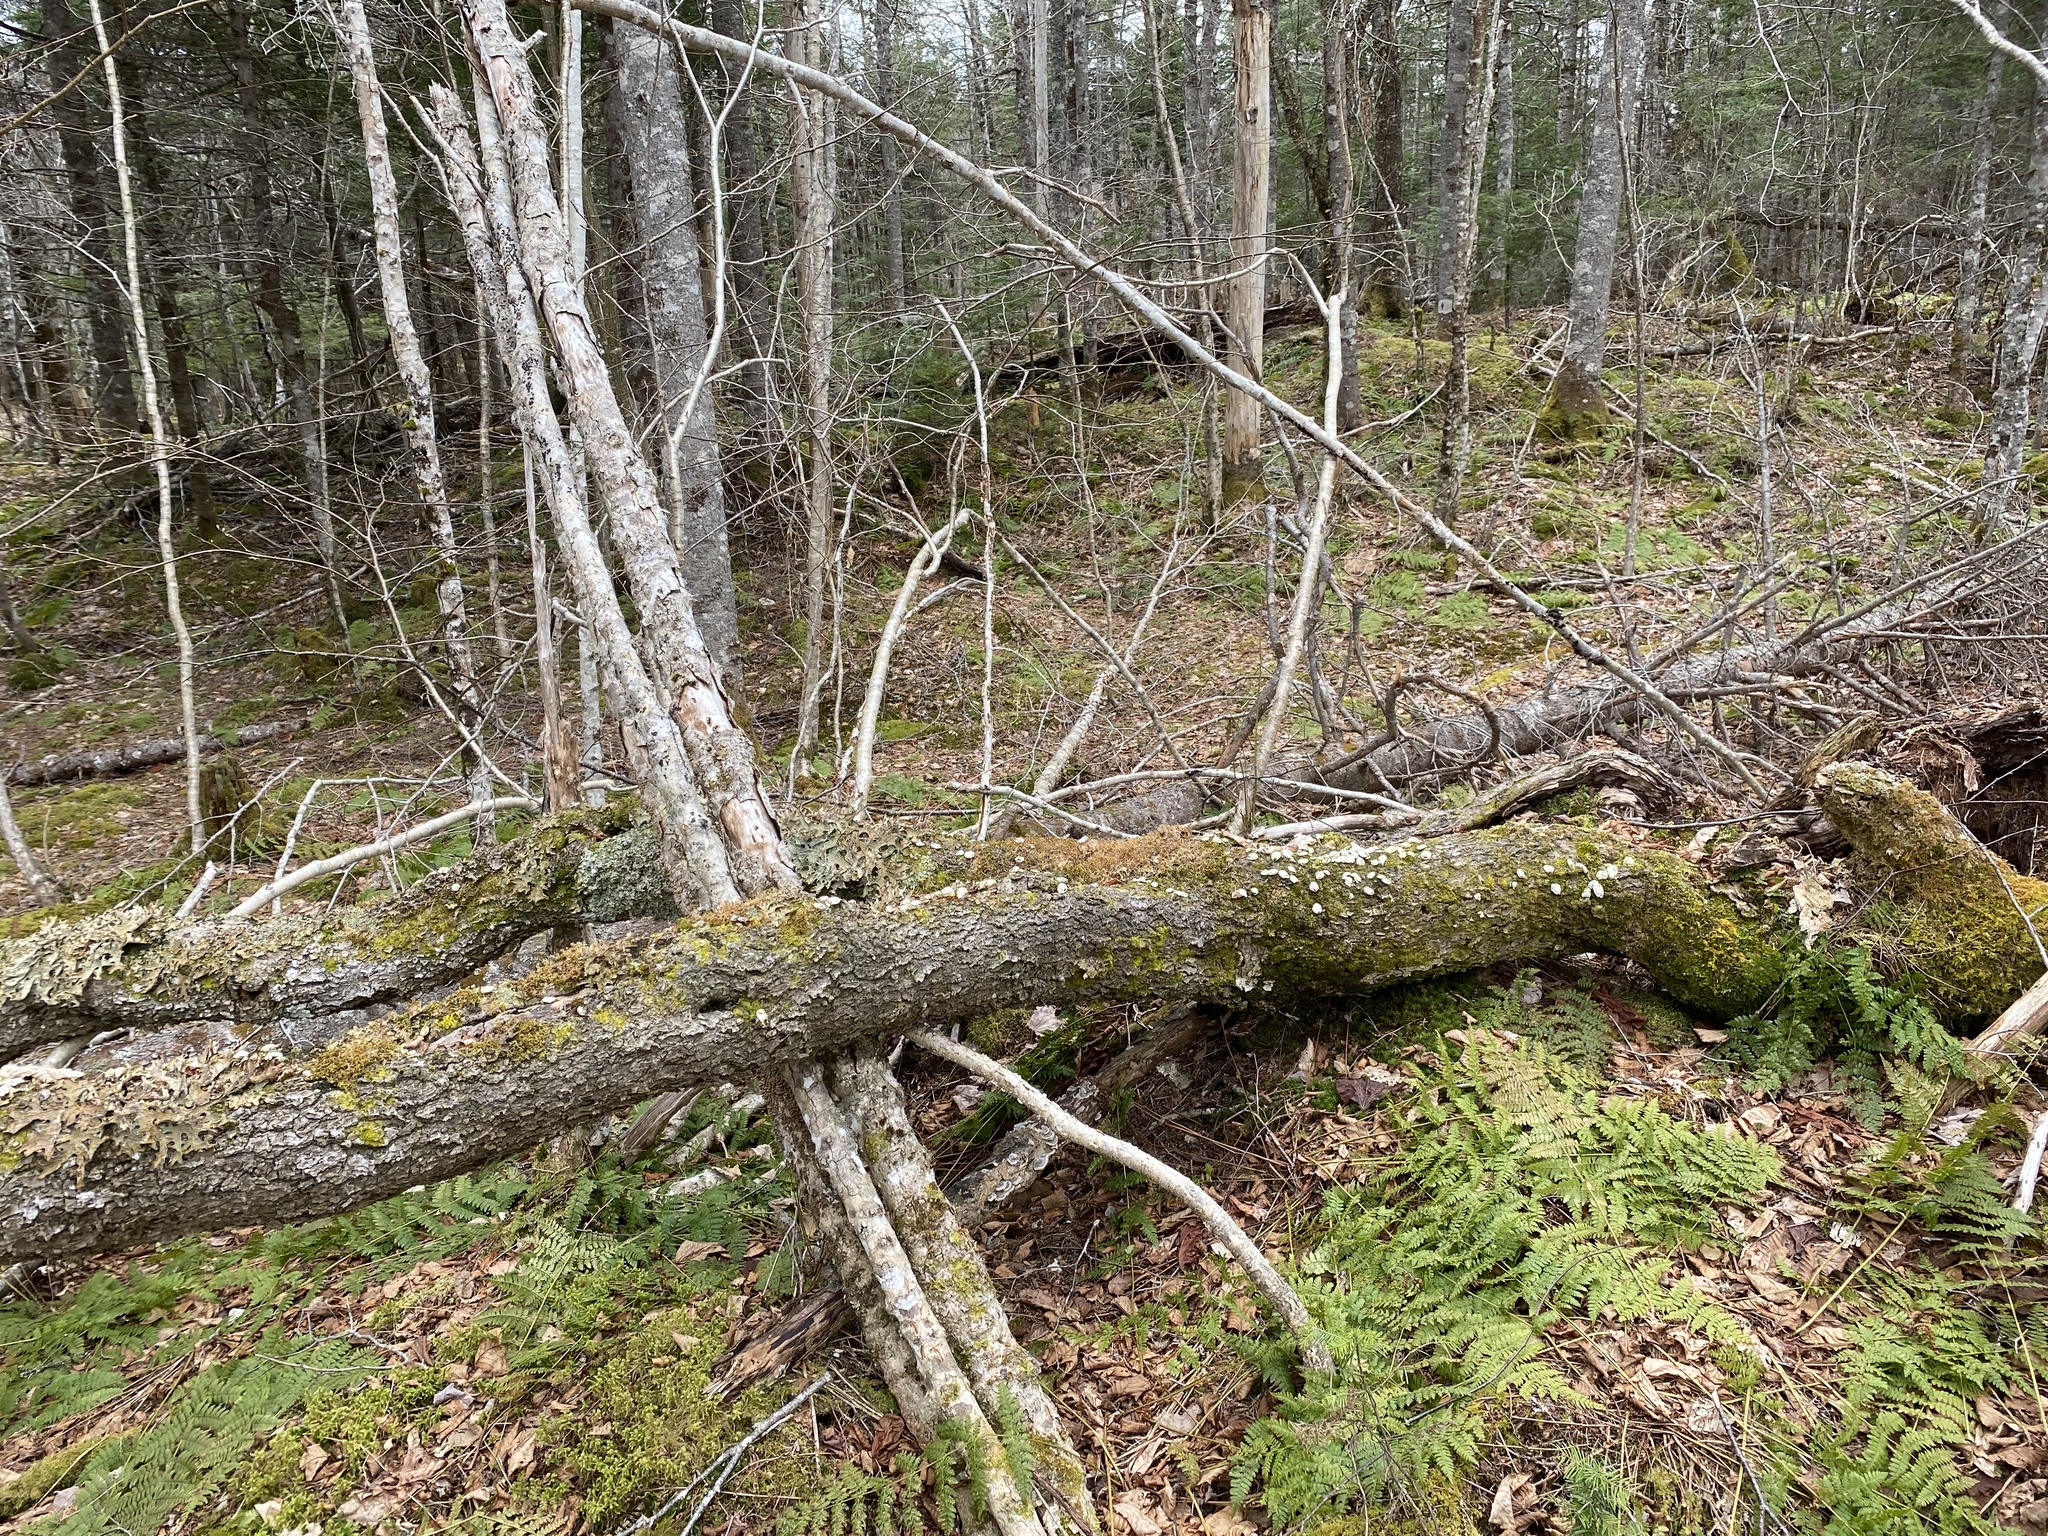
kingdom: Fungi
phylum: Basidiomycota
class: Agaricomycetes
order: Agaricales
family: Lycoperdaceae
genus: Apioperdon
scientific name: Apioperdon pyriforme
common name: Pear-shaped puffball
